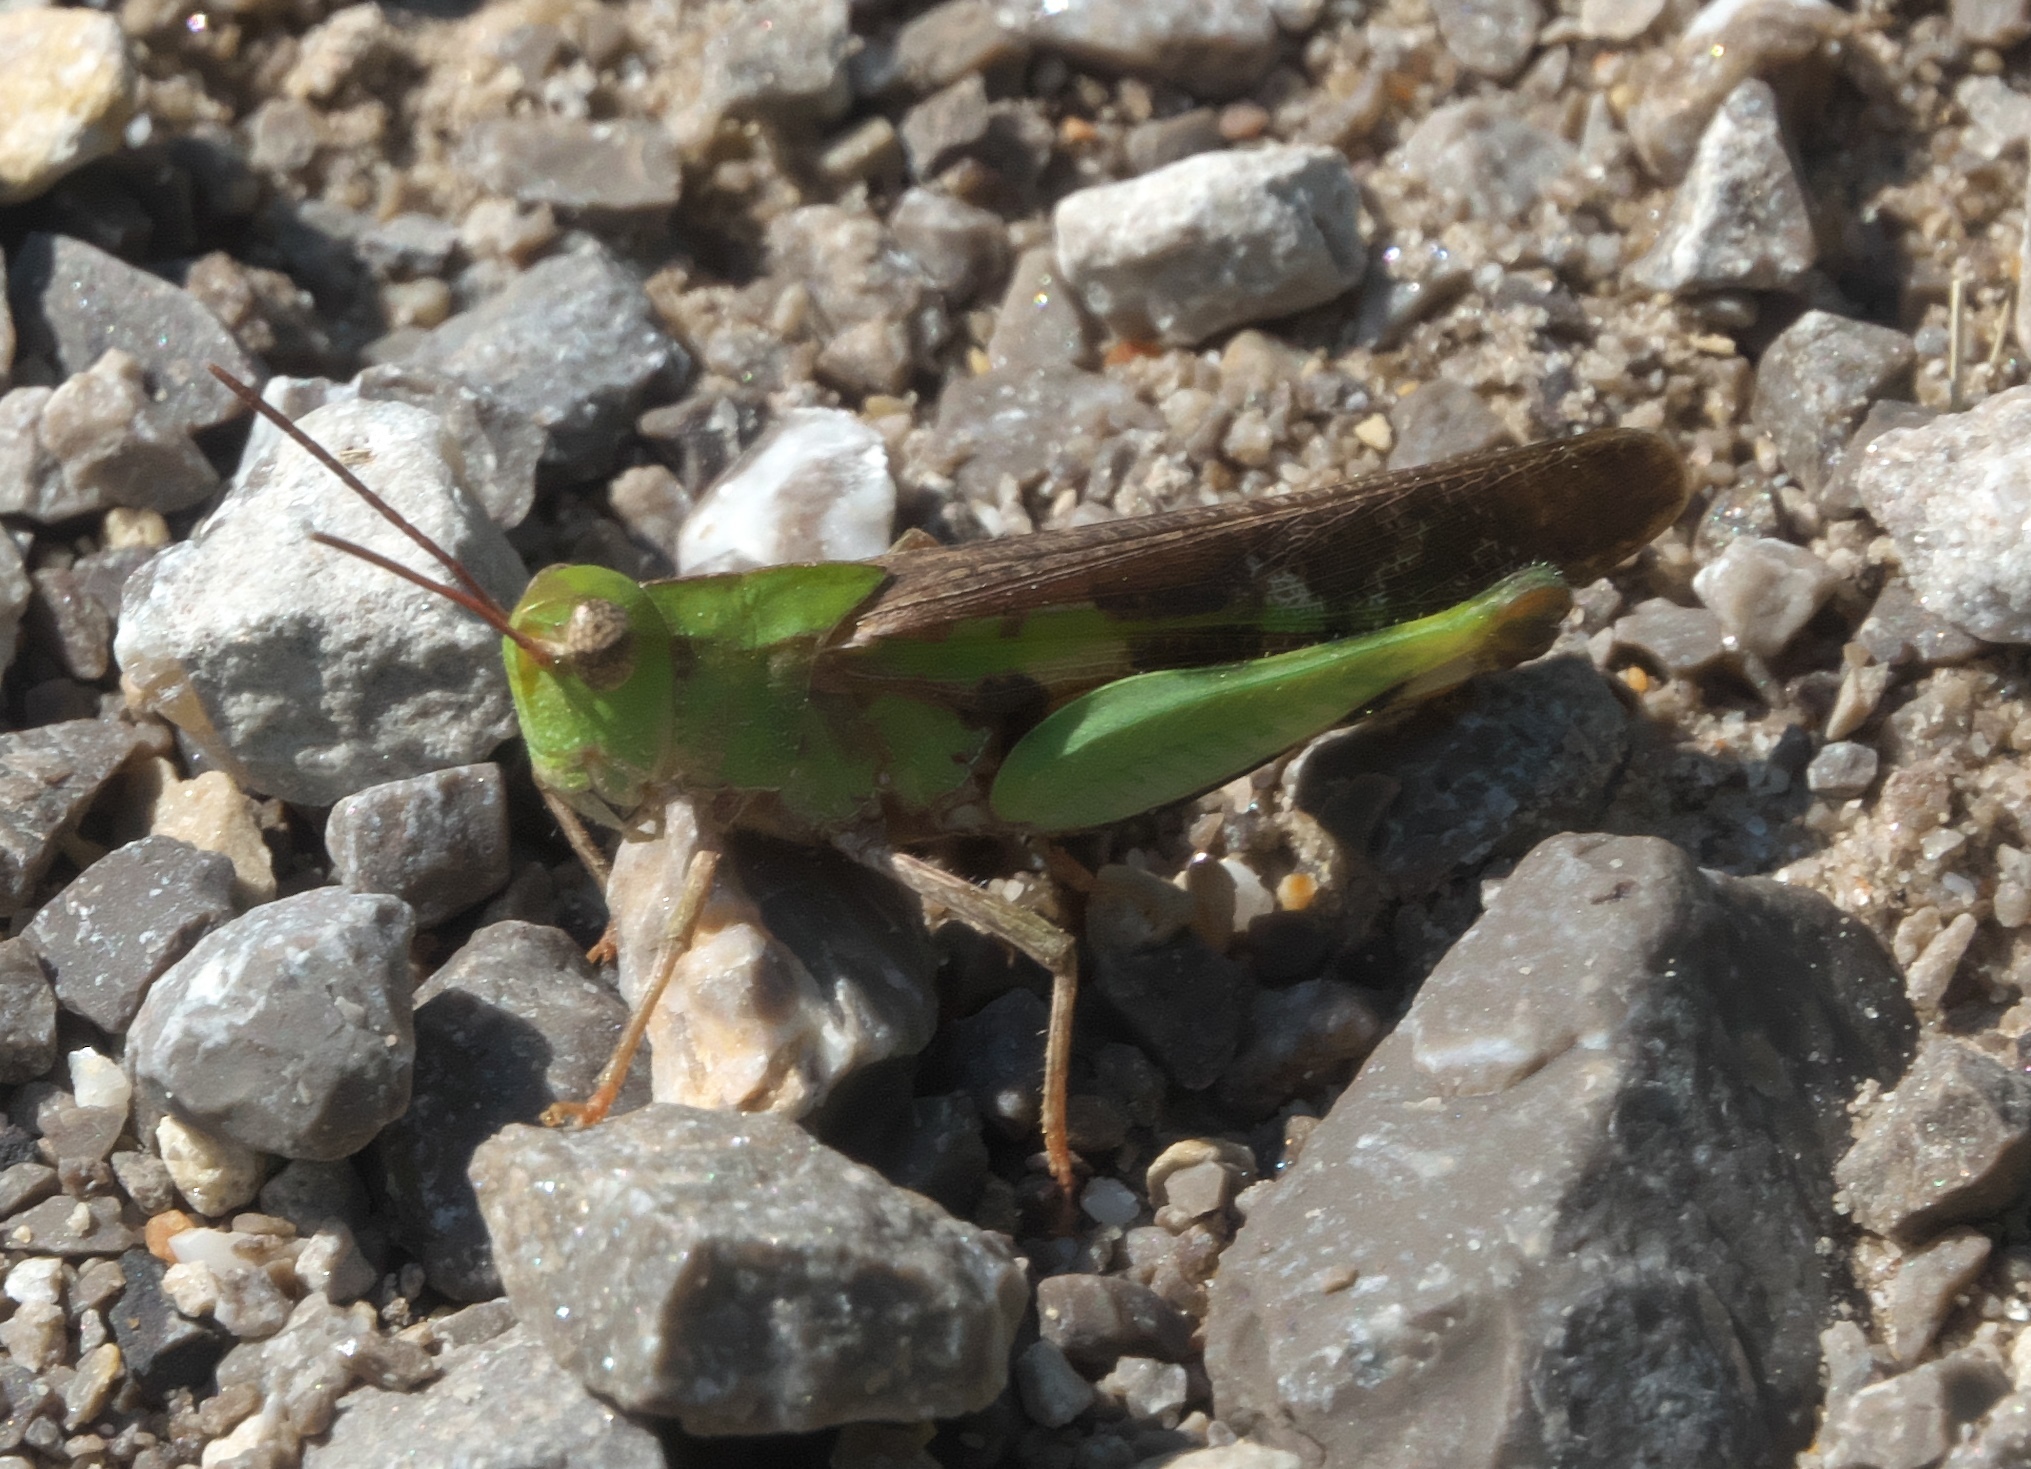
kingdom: Animalia
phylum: Arthropoda
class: Insecta
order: Orthoptera
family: Acrididae
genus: Chortophaga
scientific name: Chortophaga viridifasciata
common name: Green-striped grasshopper
